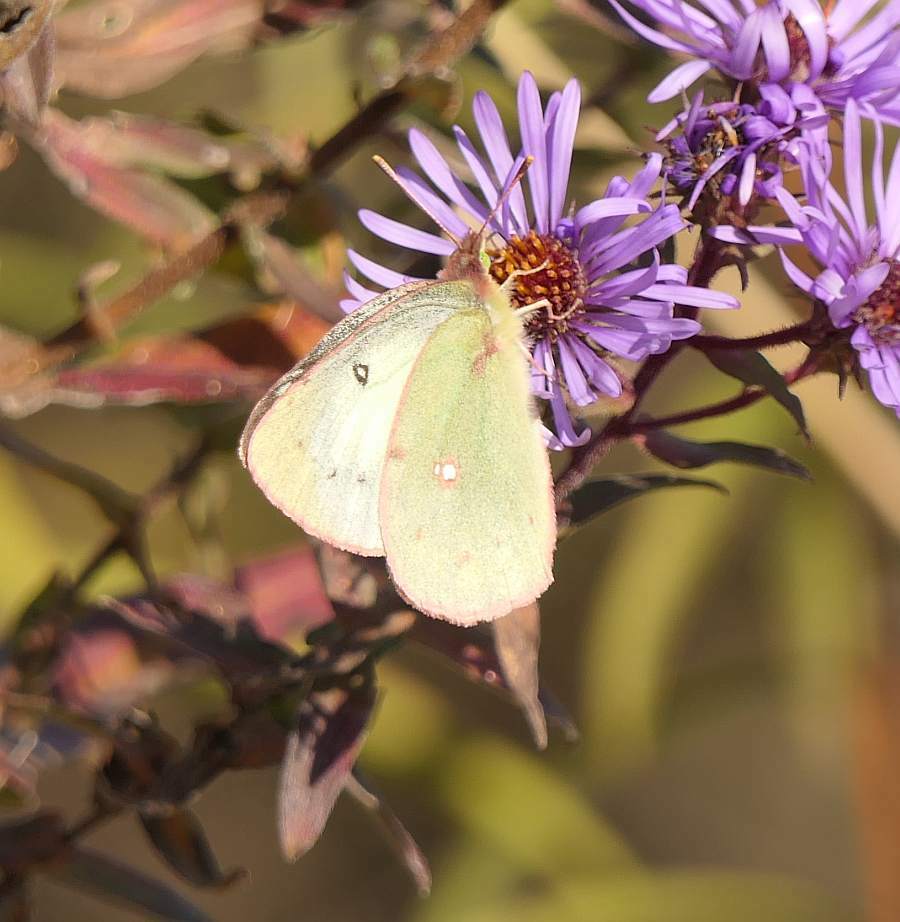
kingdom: Animalia
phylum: Arthropoda
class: Insecta
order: Lepidoptera
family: Pieridae
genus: Colias
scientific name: Colias philodice
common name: Clouded sulphur
